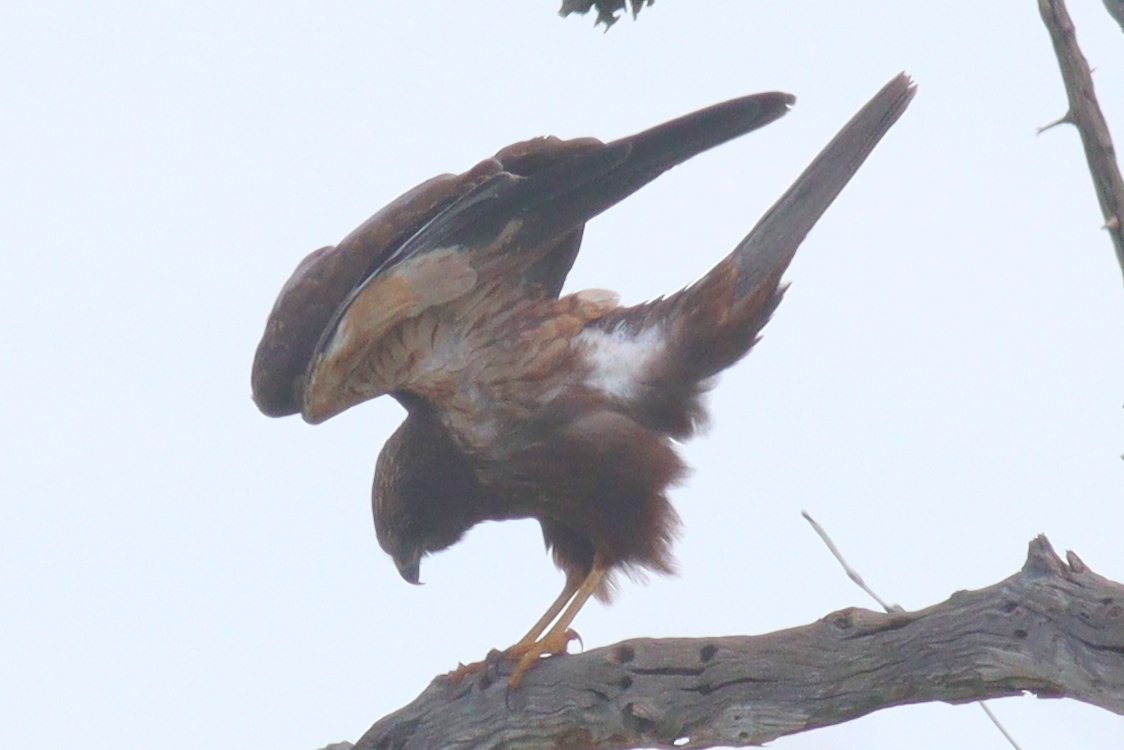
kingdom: Animalia
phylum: Chordata
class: Aves
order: Accipitriformes
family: Accipitridae
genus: Circus
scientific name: Circus aeruginosus
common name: Western marsh harrier
